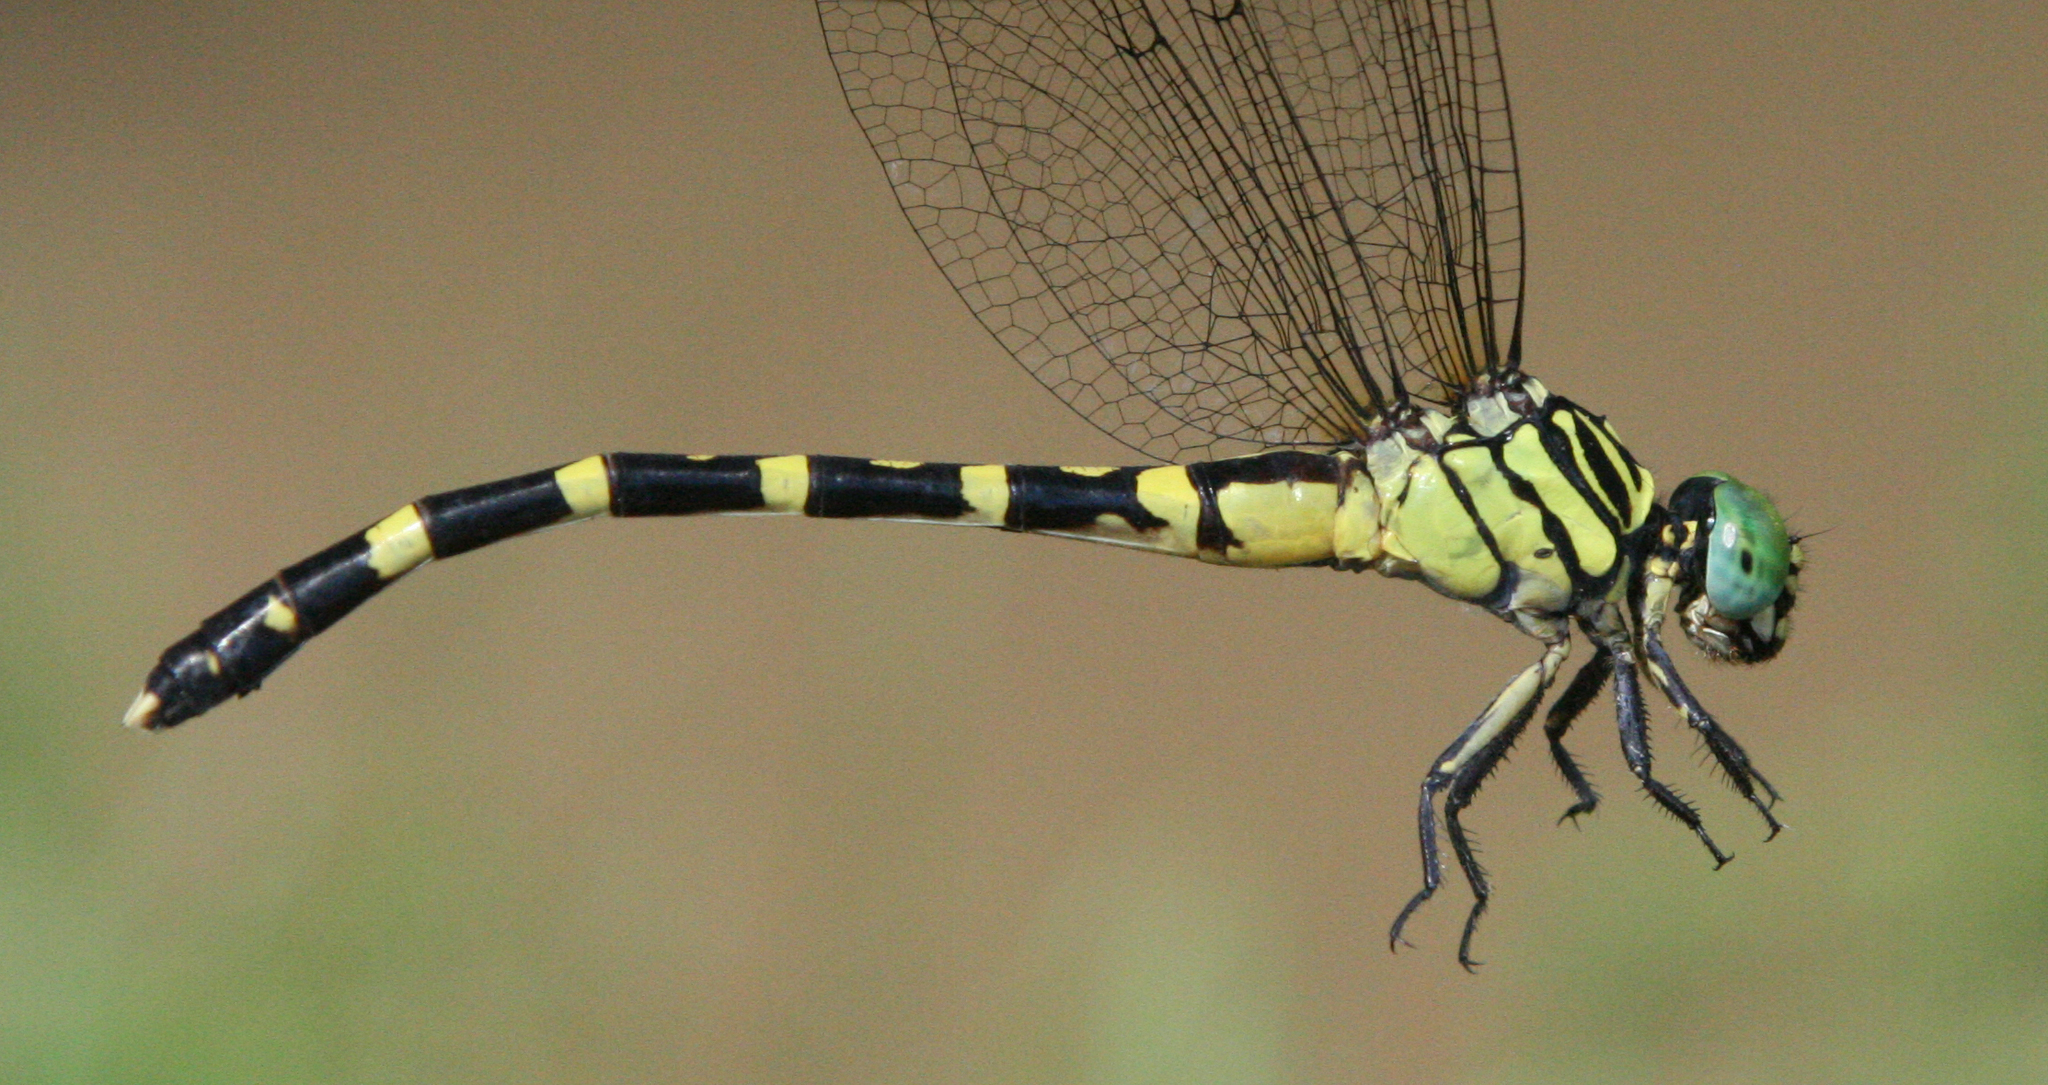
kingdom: Animalia
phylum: Arthropoda
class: Insecta
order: Odonata
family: Gomphidae
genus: Nychogomphus
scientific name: Nychogomphus duaricus
